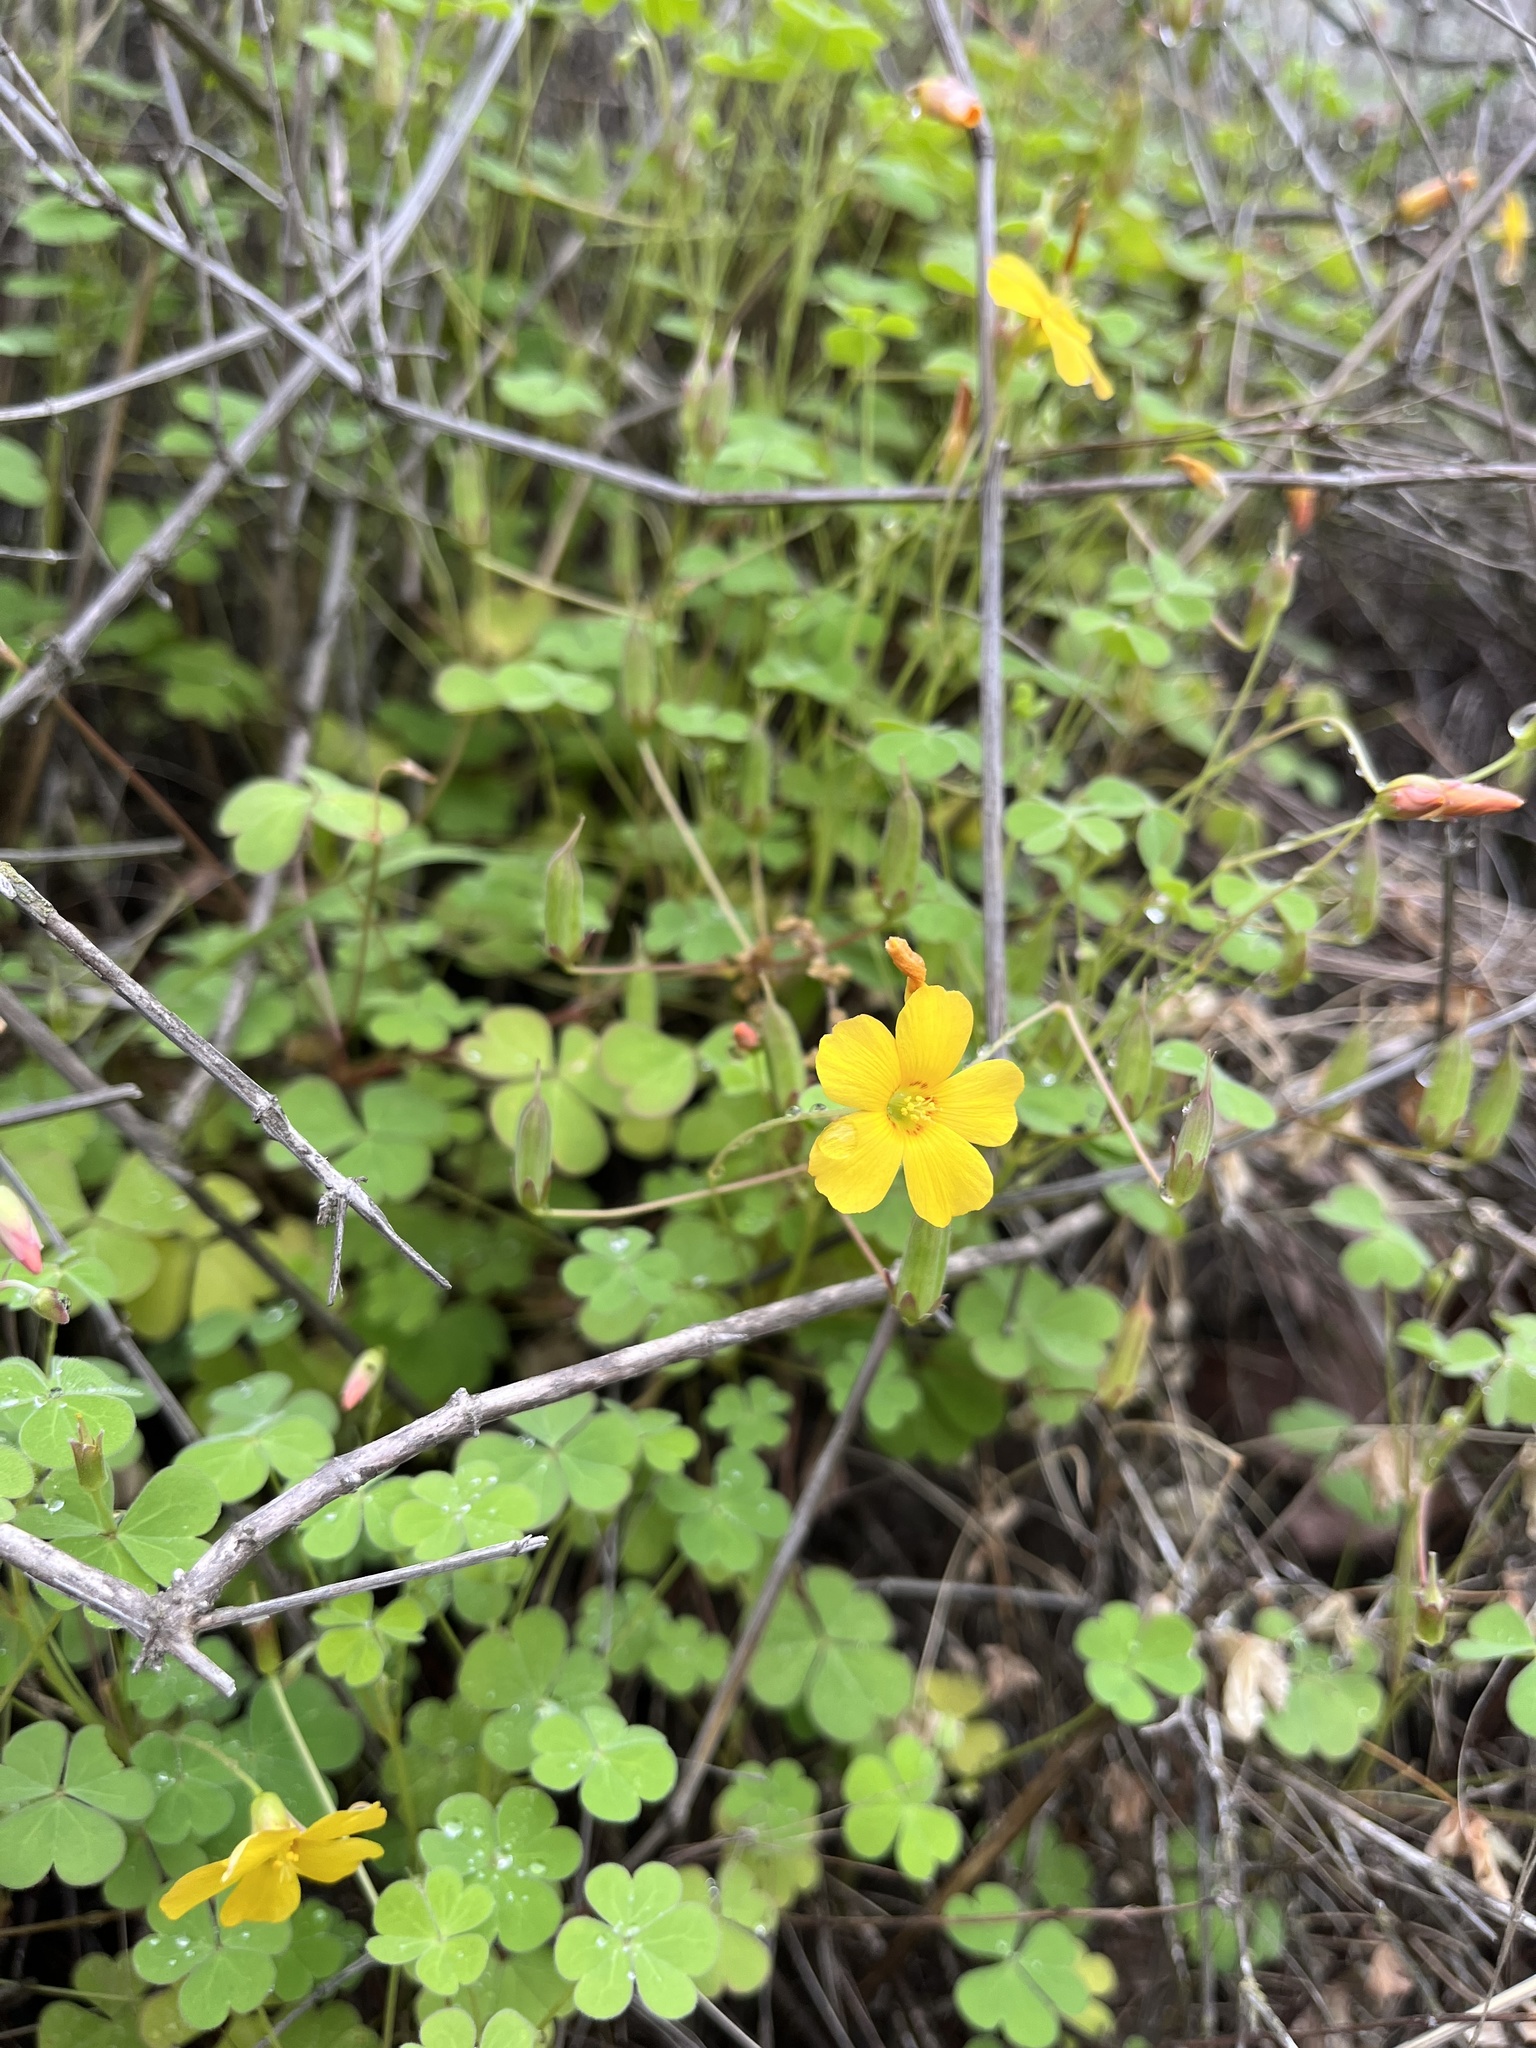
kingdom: Plantae
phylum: Tracheophyta
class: Magnoliopsida
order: Oxalidales
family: Oxalidaceae
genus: Oxalis
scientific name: Oxalis californica
